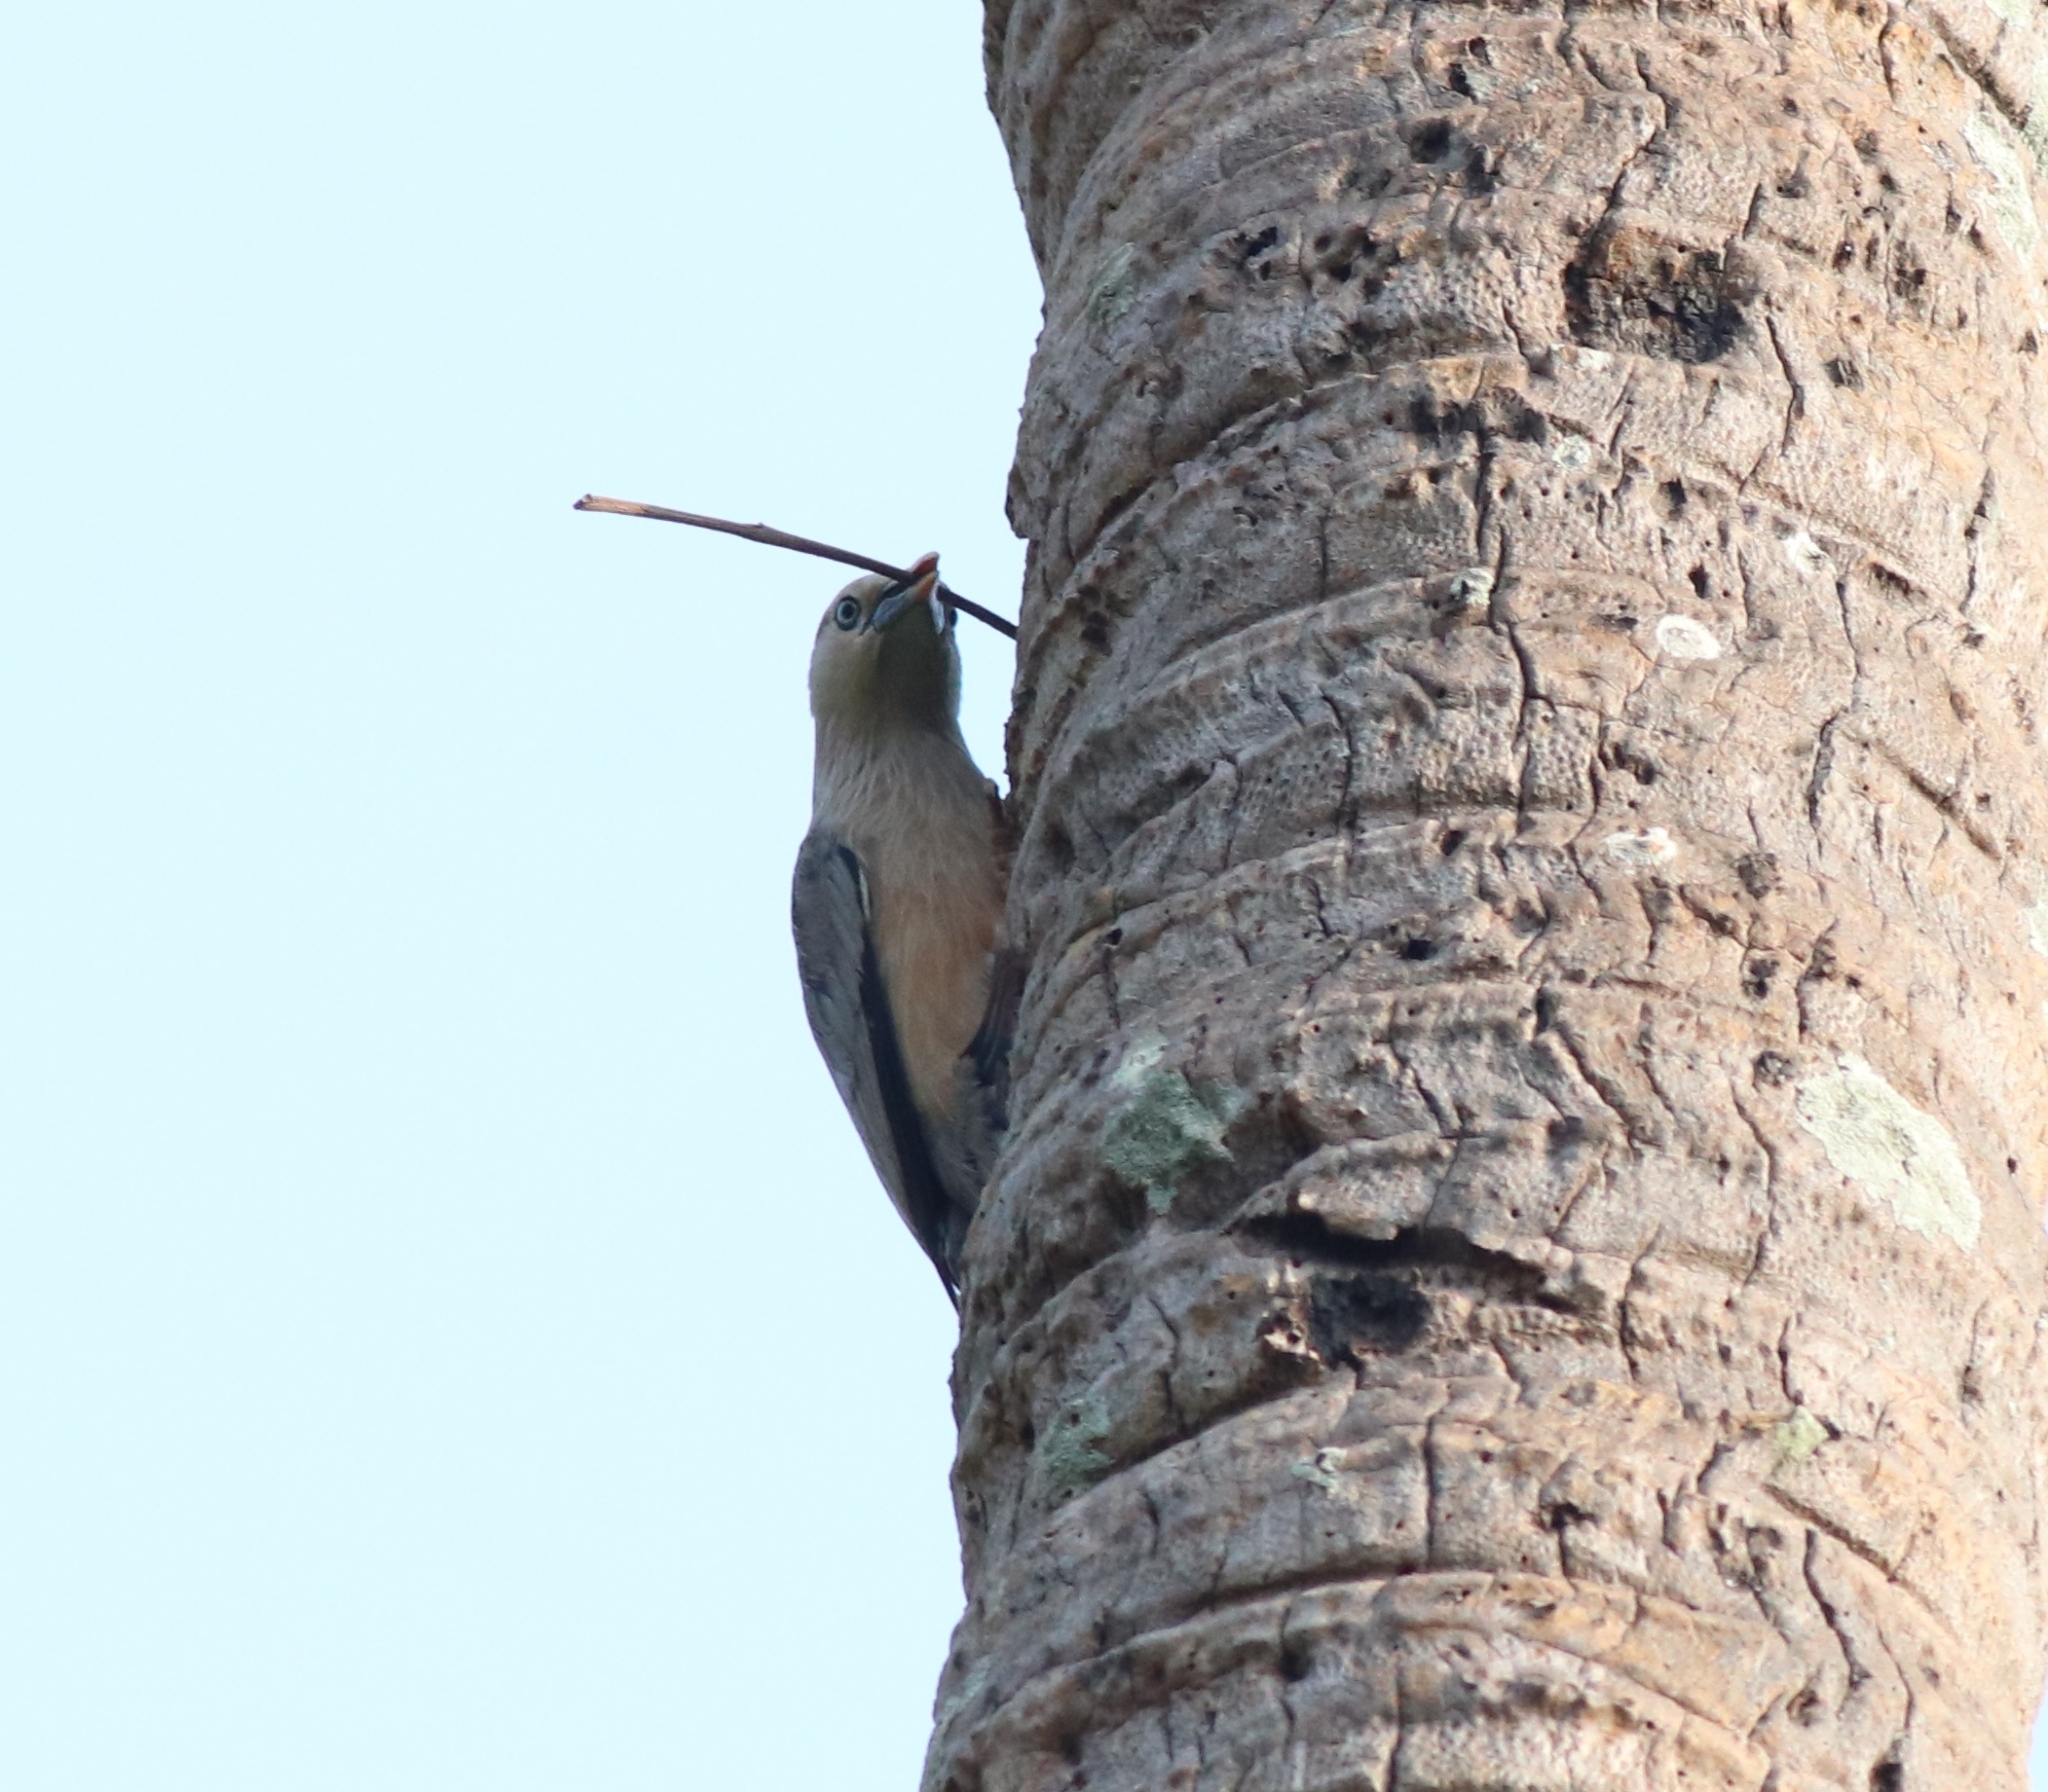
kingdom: Animalia
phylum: Chordata
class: Aves
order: Passeriformes
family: Sturnidae
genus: Sturnia
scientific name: Sturnia blythii
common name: Malabar starling
